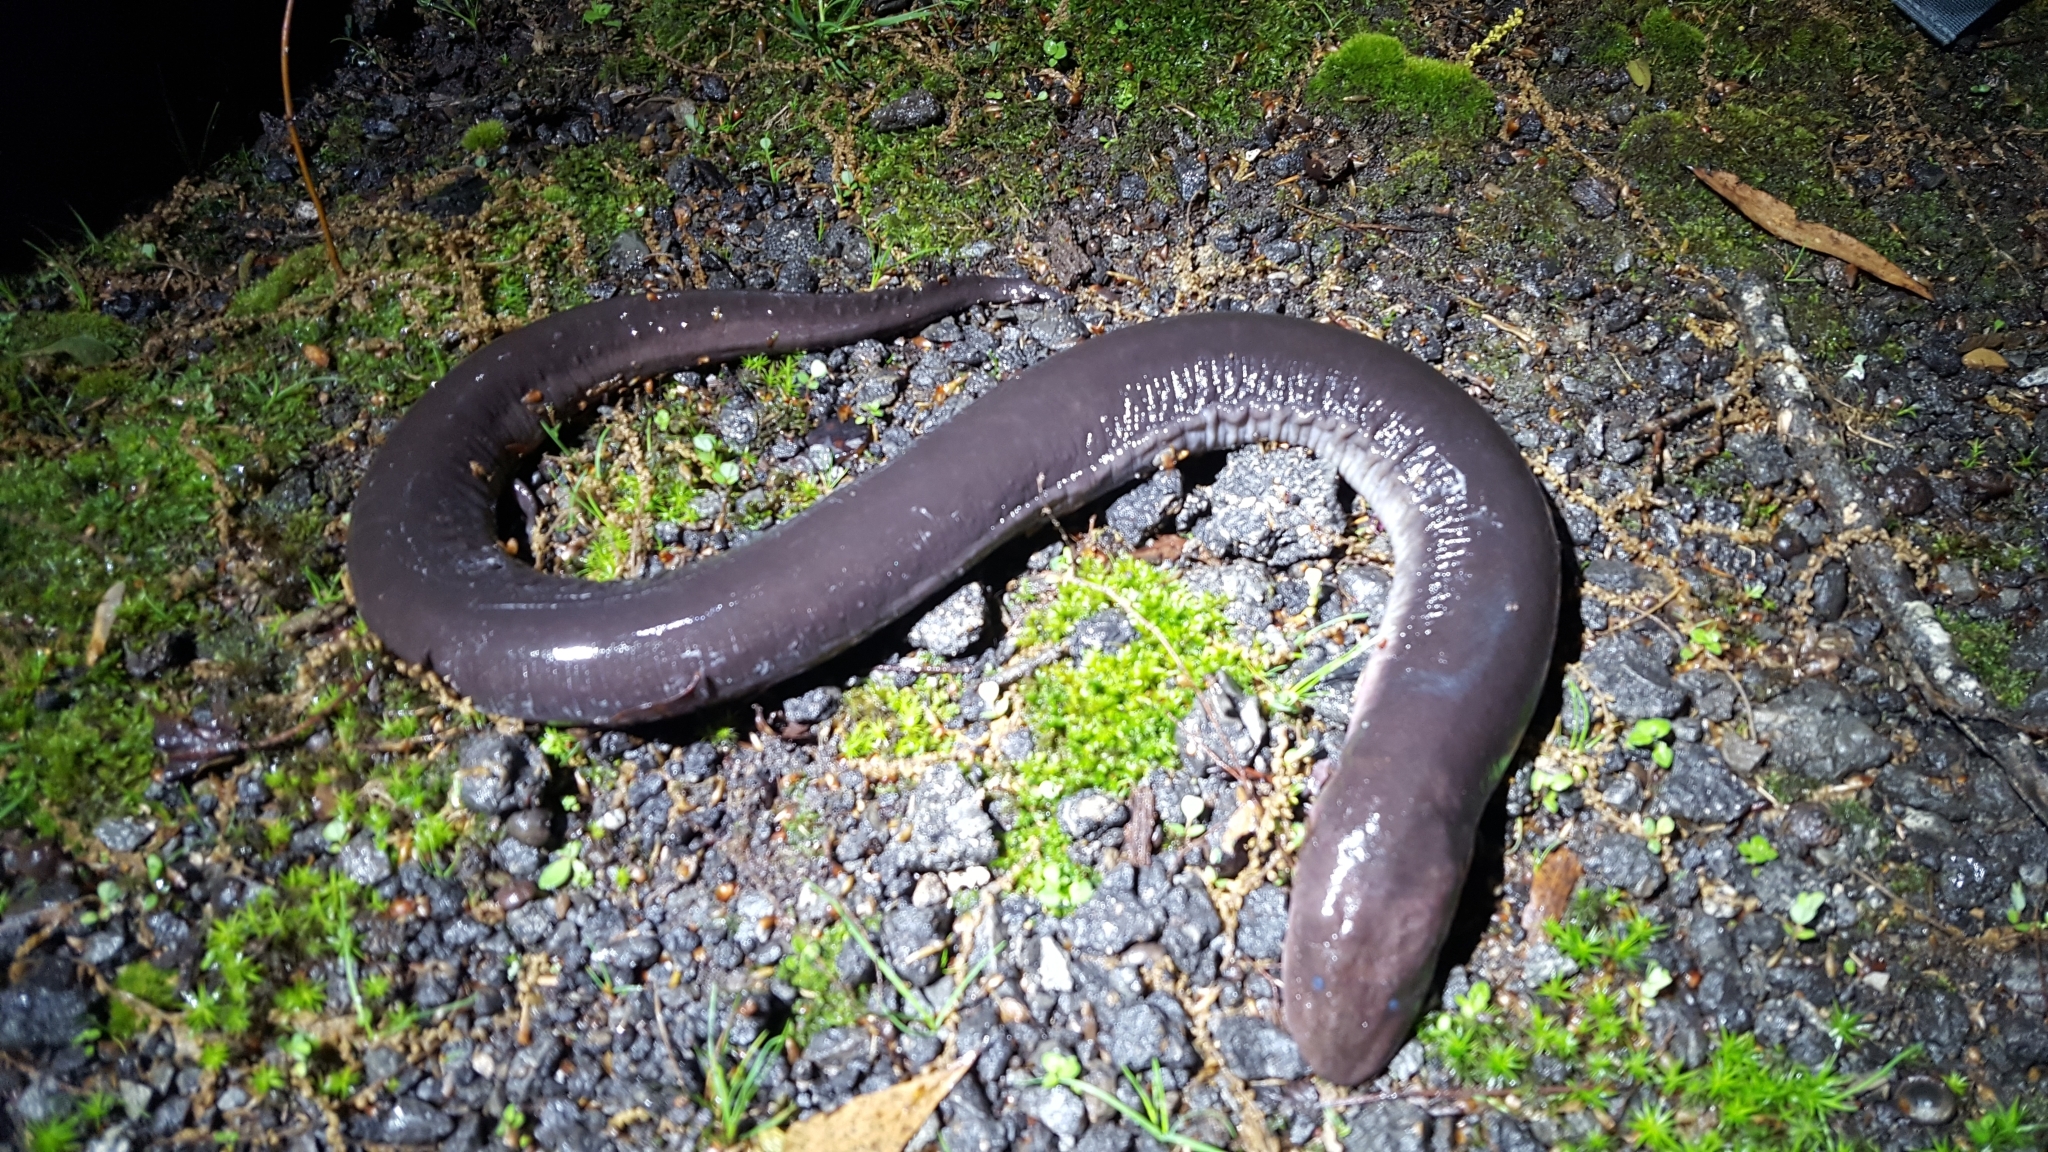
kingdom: Animalia
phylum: Chordata
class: Amphibia
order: Caudata
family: Amphiumidae
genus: Amphiuma
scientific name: Amphiuma tridactylum
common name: Three-toed amphiuma
